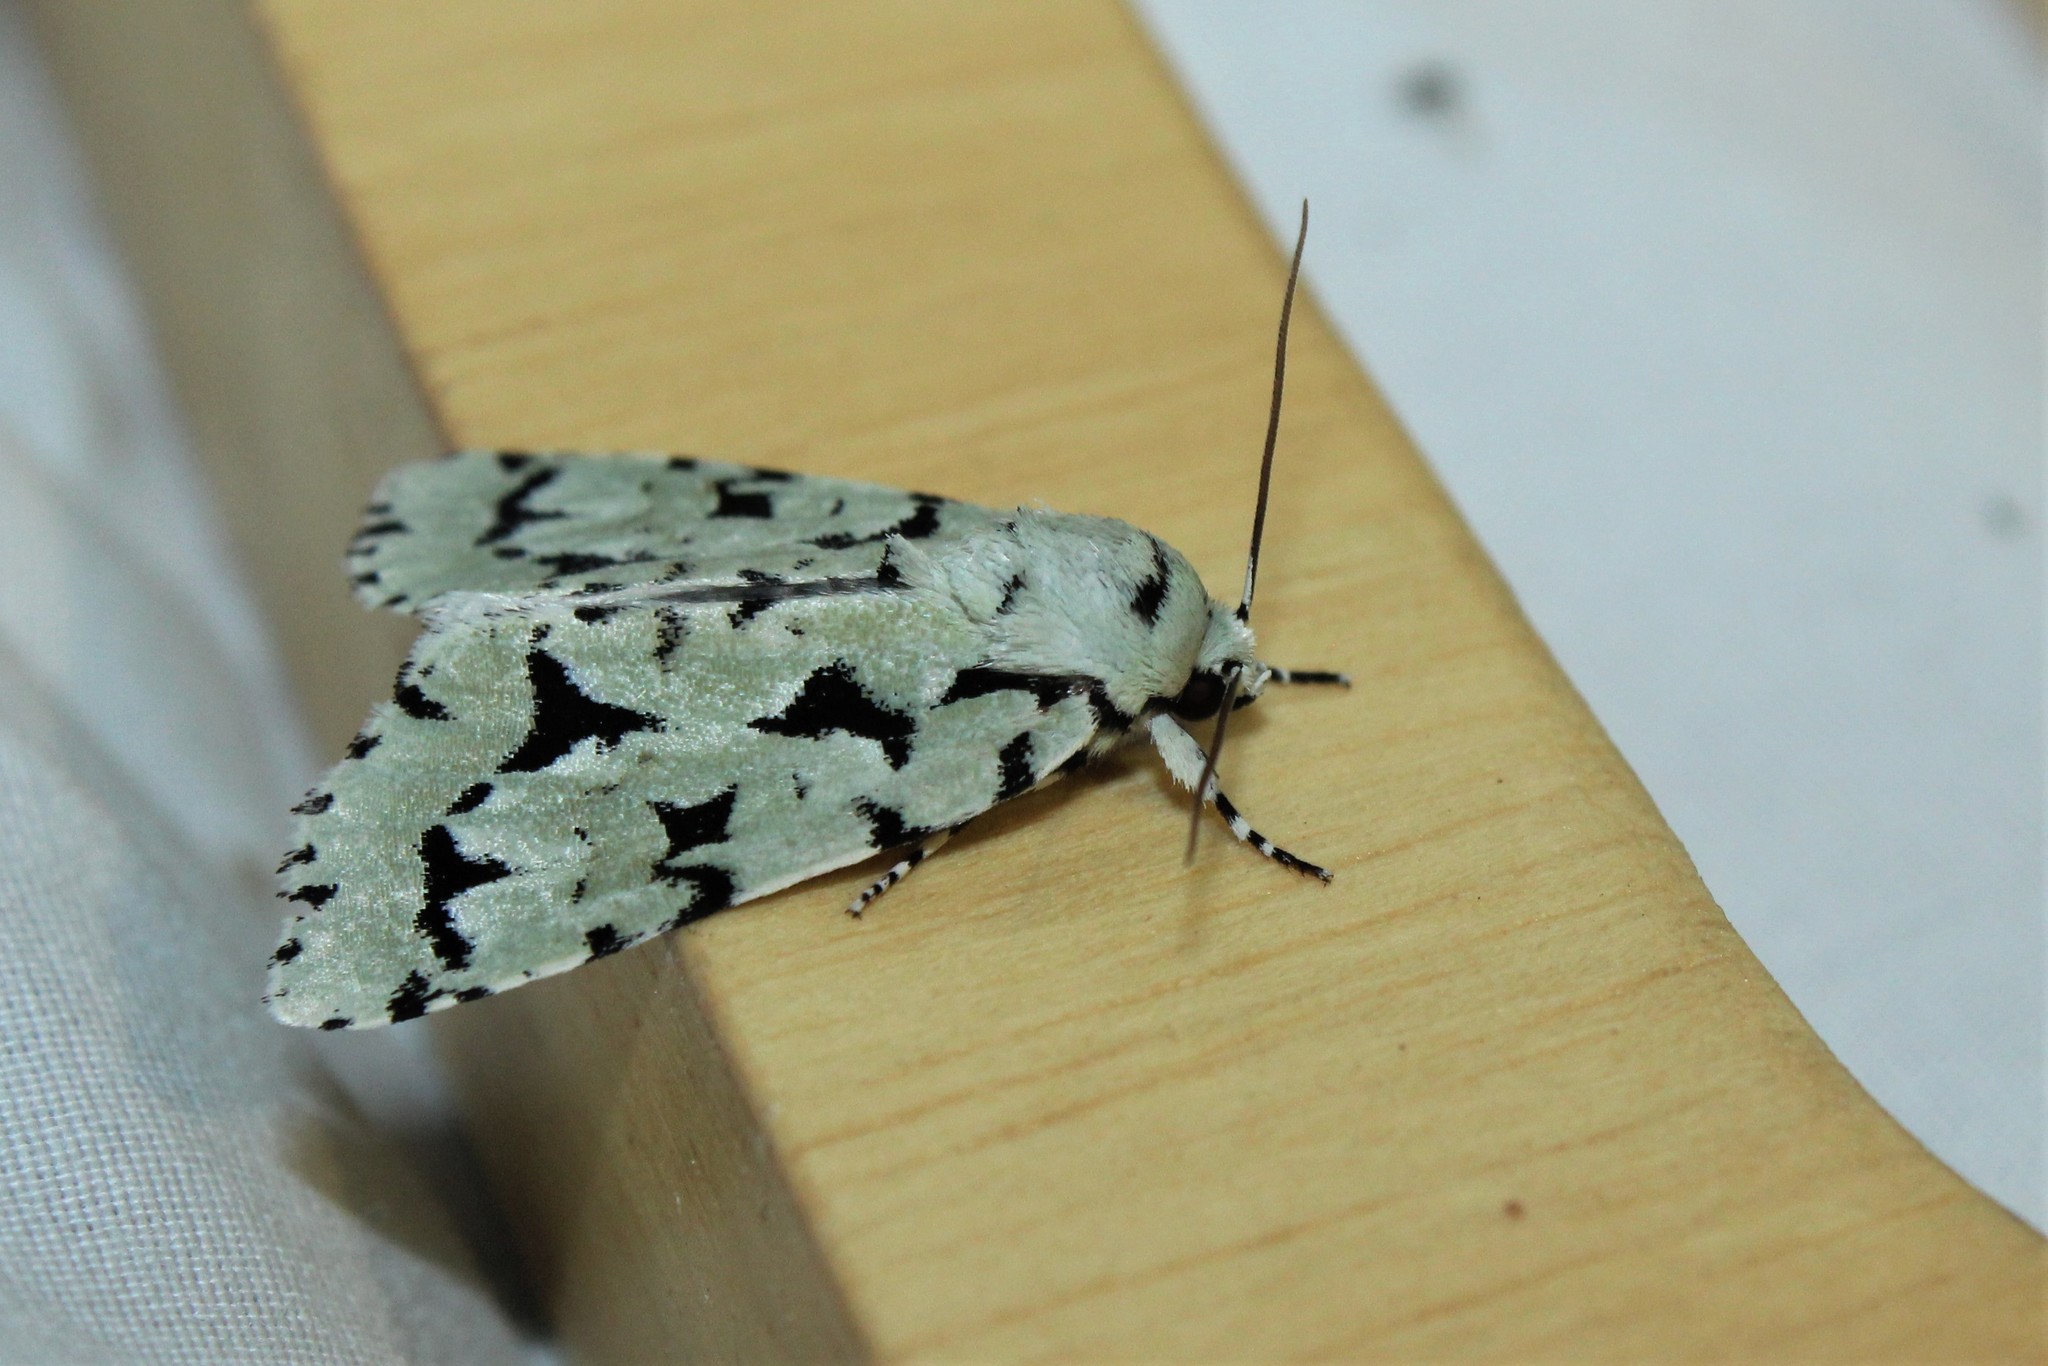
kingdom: Animalia
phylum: Arthropoda
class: Insecta
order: Lepidoptera
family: Noctuidae
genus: Acronicta
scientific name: Acronicta fallax
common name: Green marvel
